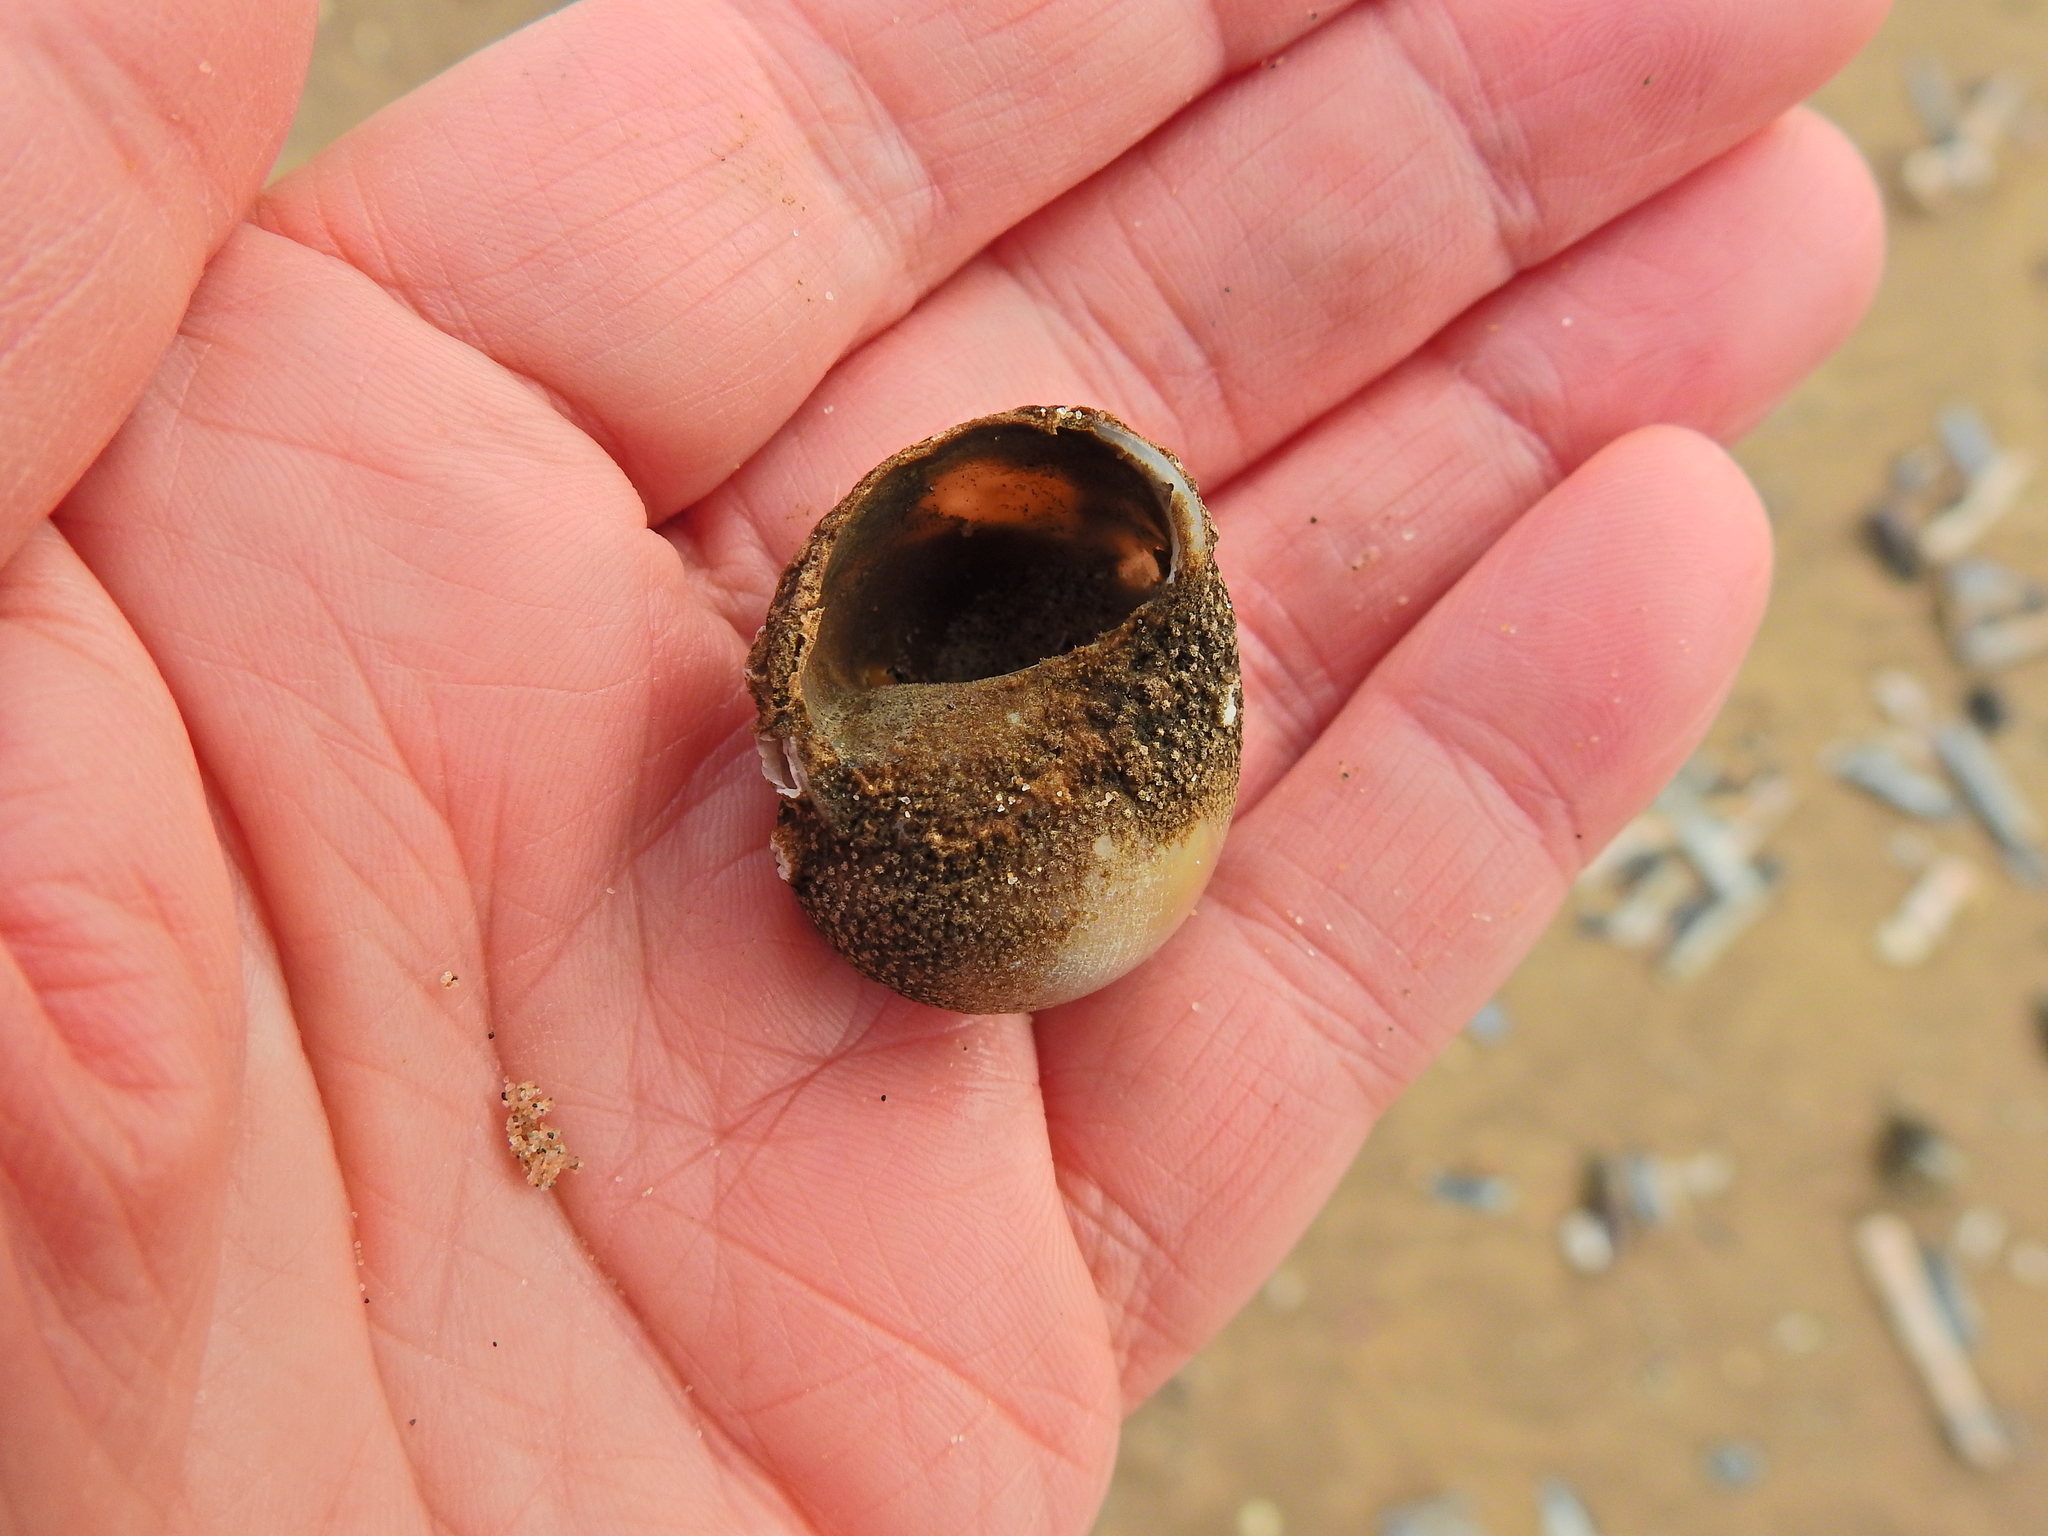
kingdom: Animalia
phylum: Mollusca
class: Gastropoda
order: Littorinimorpha
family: Naticidae
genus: Euspira
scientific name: Euspira catena
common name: Necklace shell
